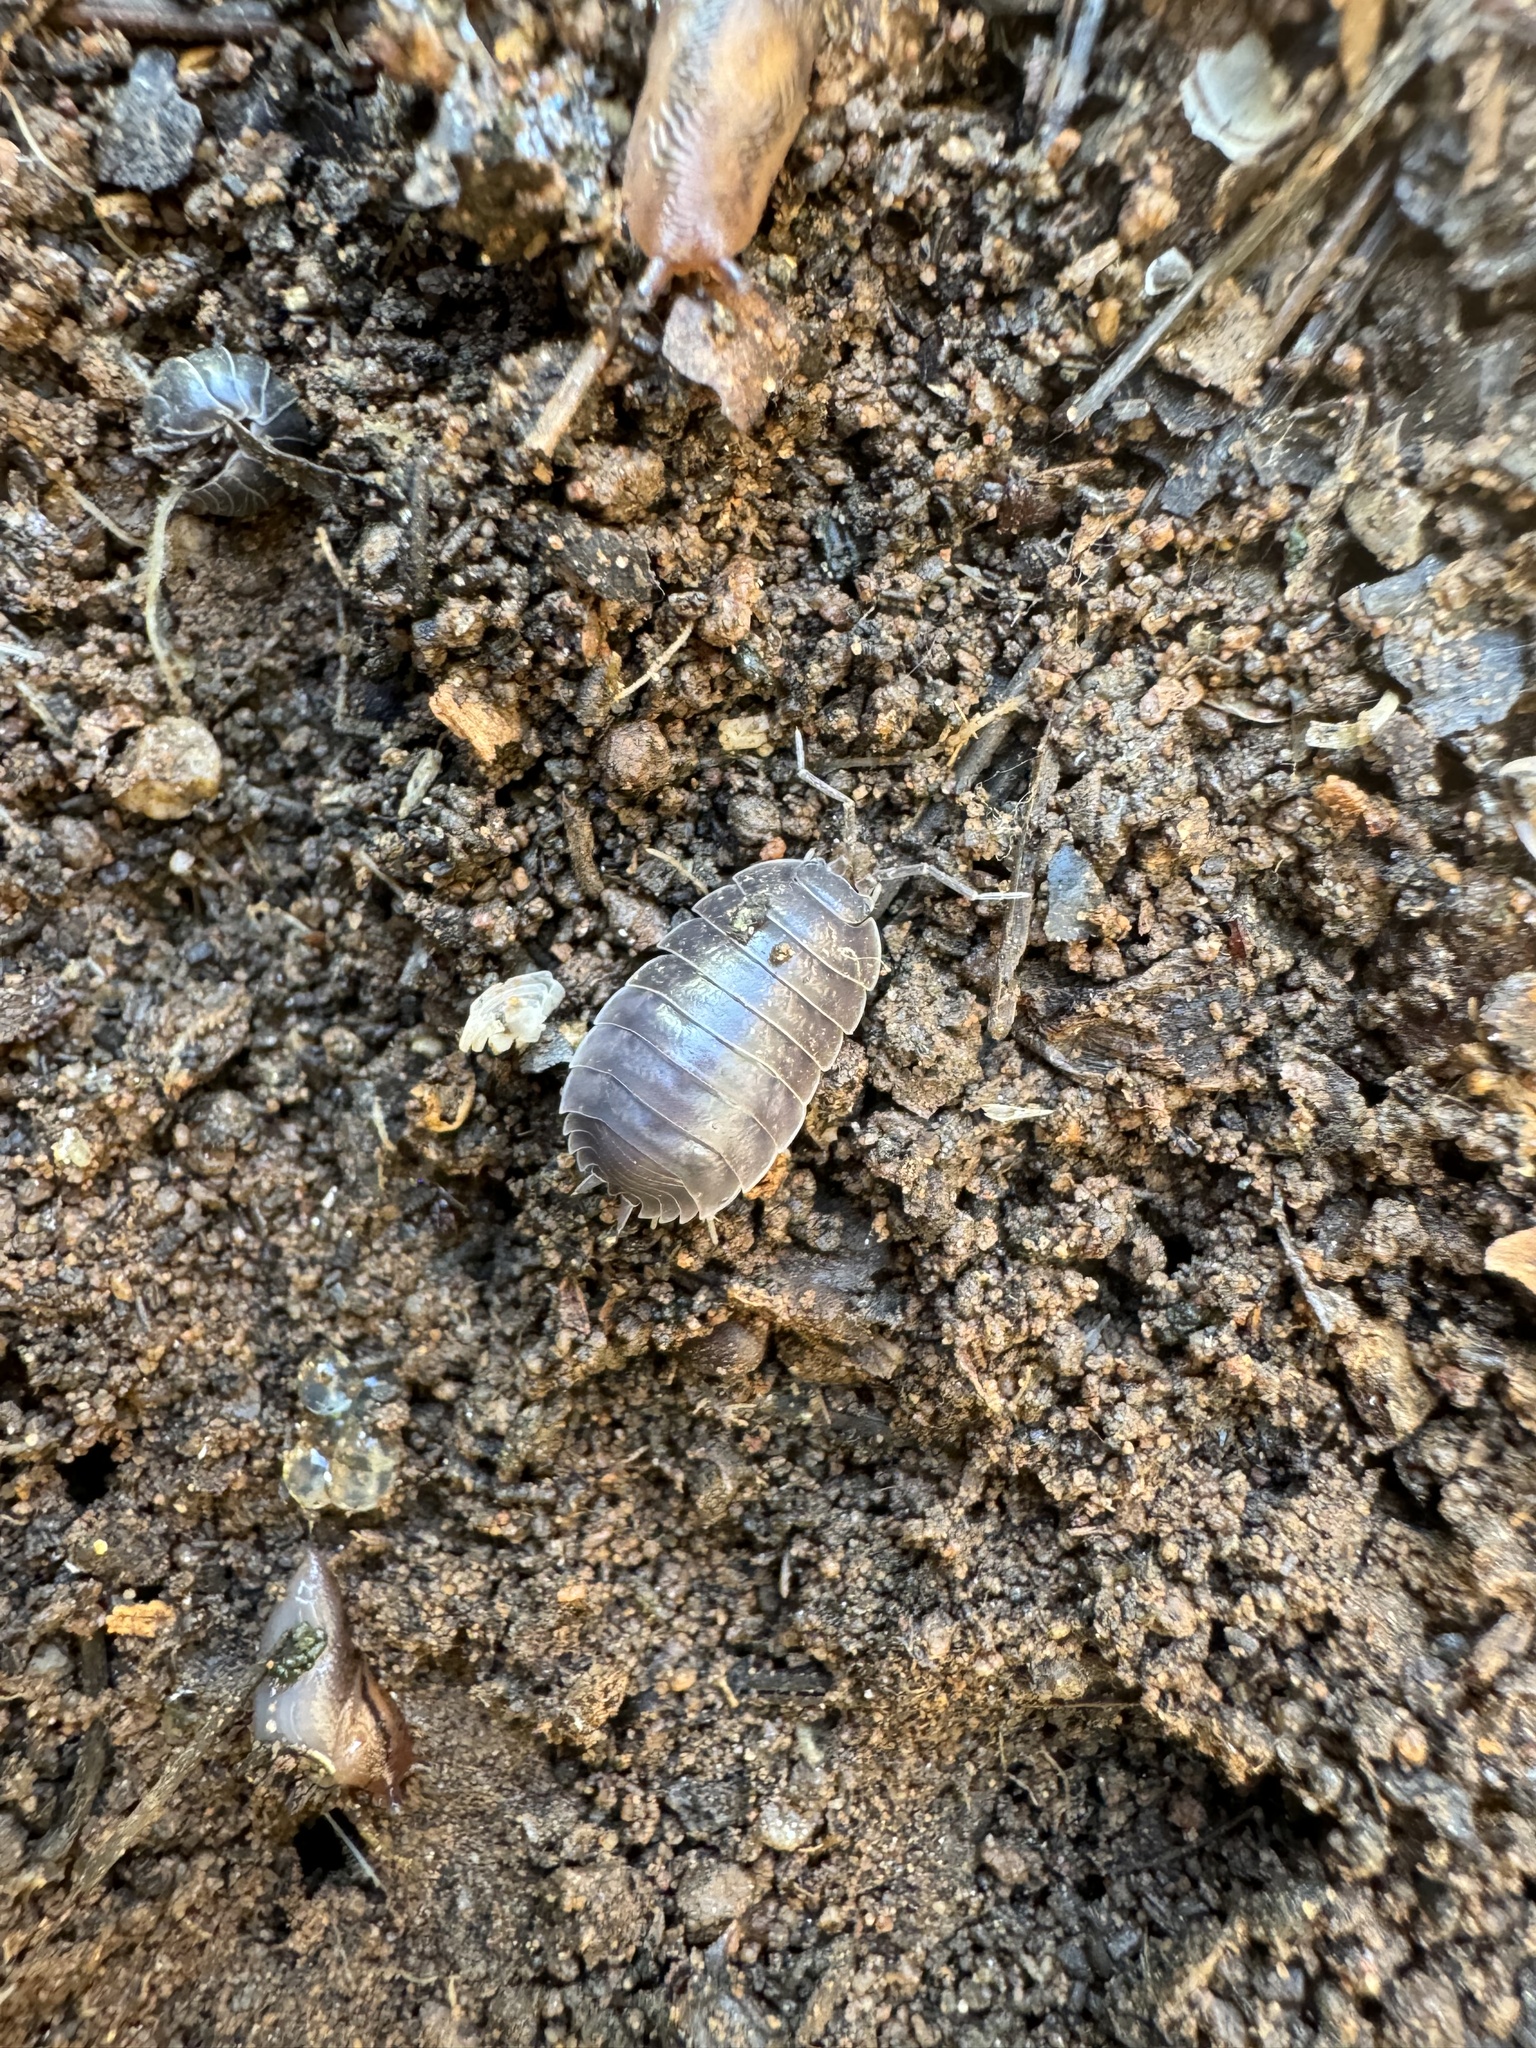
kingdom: Animalia
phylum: Arthropoda
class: Malacostraca
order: Isopoda
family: Porcellionidae
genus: Porcellio
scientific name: Porcellio laevis
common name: Swift woodlouse
